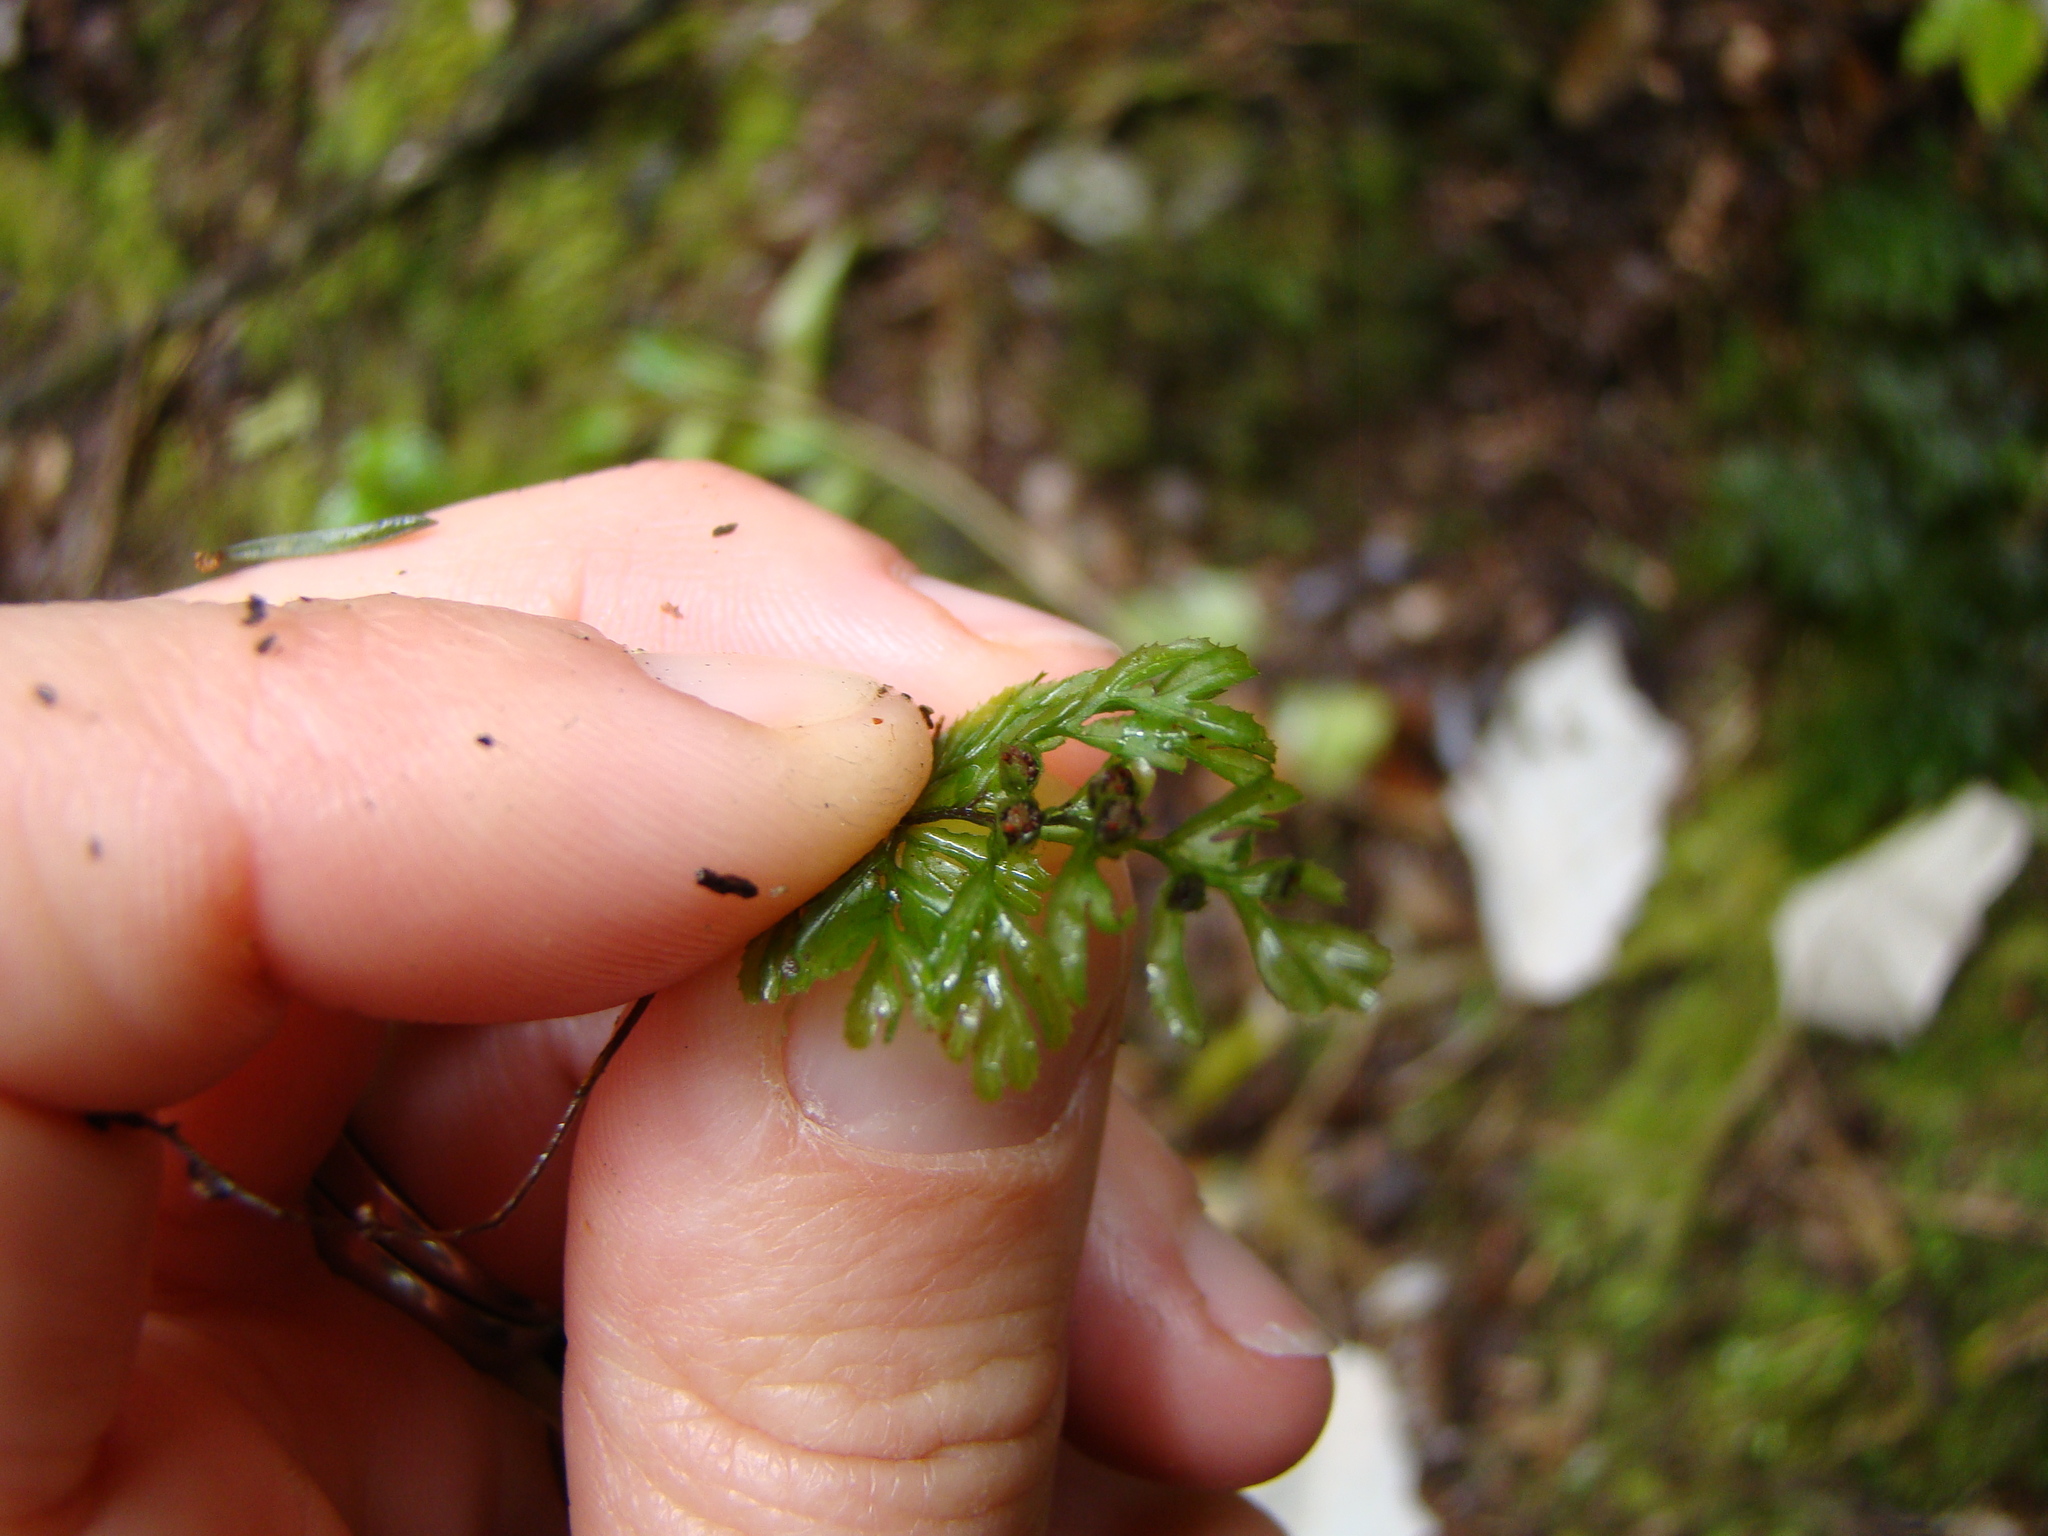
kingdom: Plantae
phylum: Tracheophyta
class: Polypodiopsida
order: Hymenophyllales
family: Hymenophyllaceae
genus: Hymenophyllum
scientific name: Hymenophyllum multifidum
